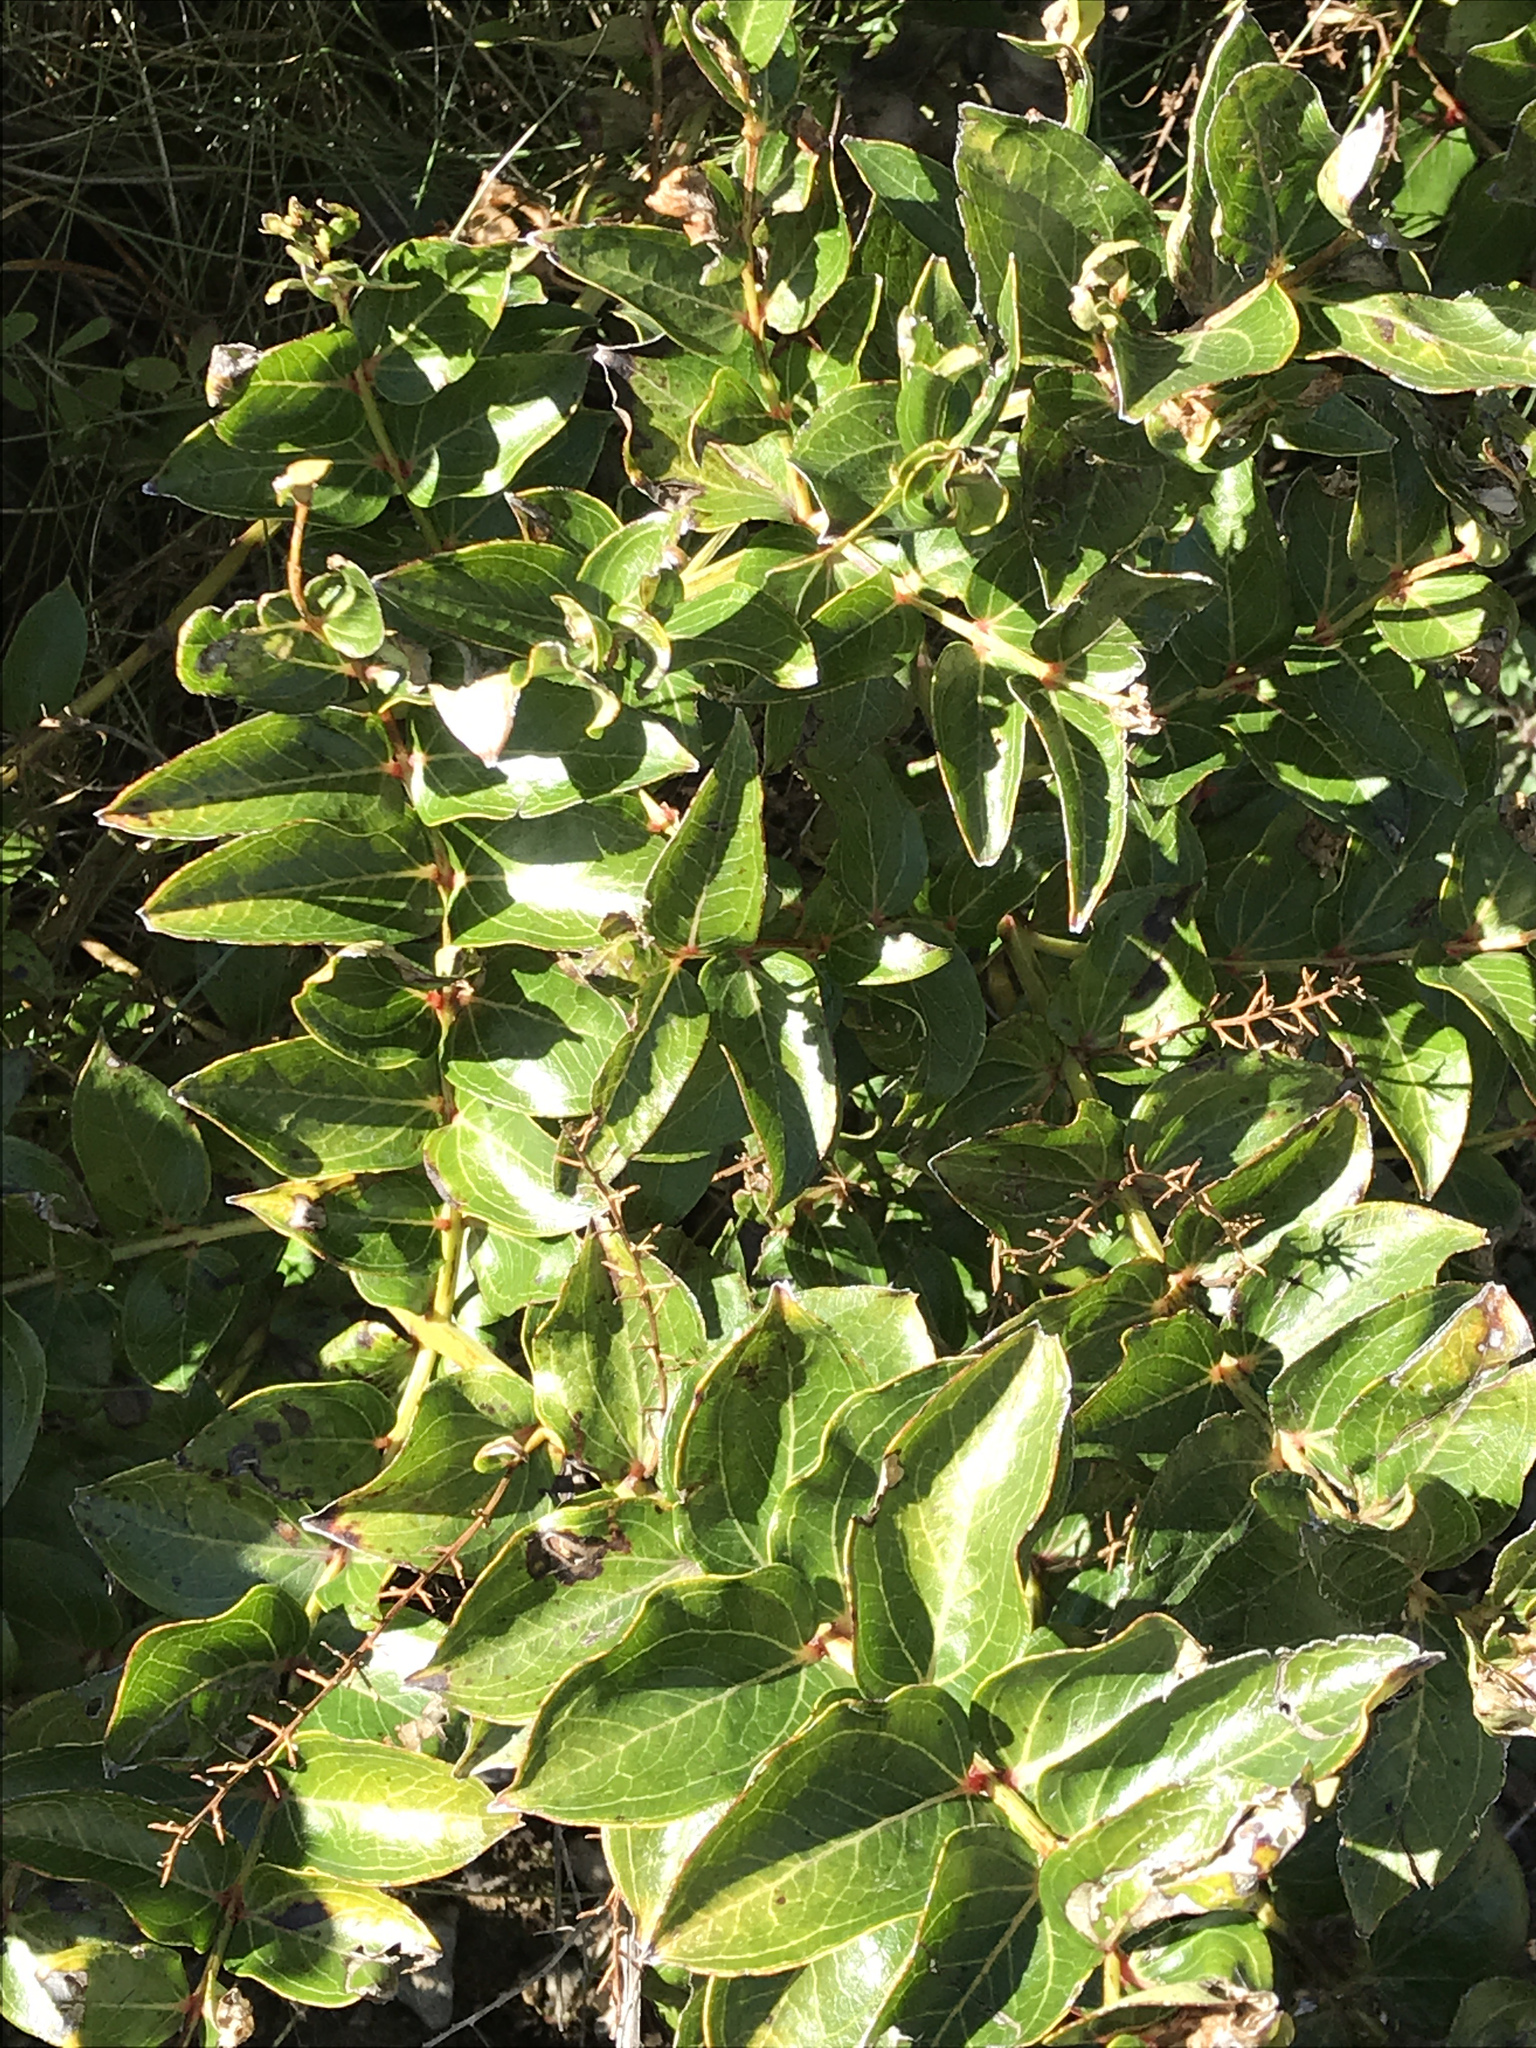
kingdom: Plantae
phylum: Tracheophyta
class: Magnoliopsida
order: Cucurbitales
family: Coriariaceae
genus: Coriaria
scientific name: Coriaria arborea
